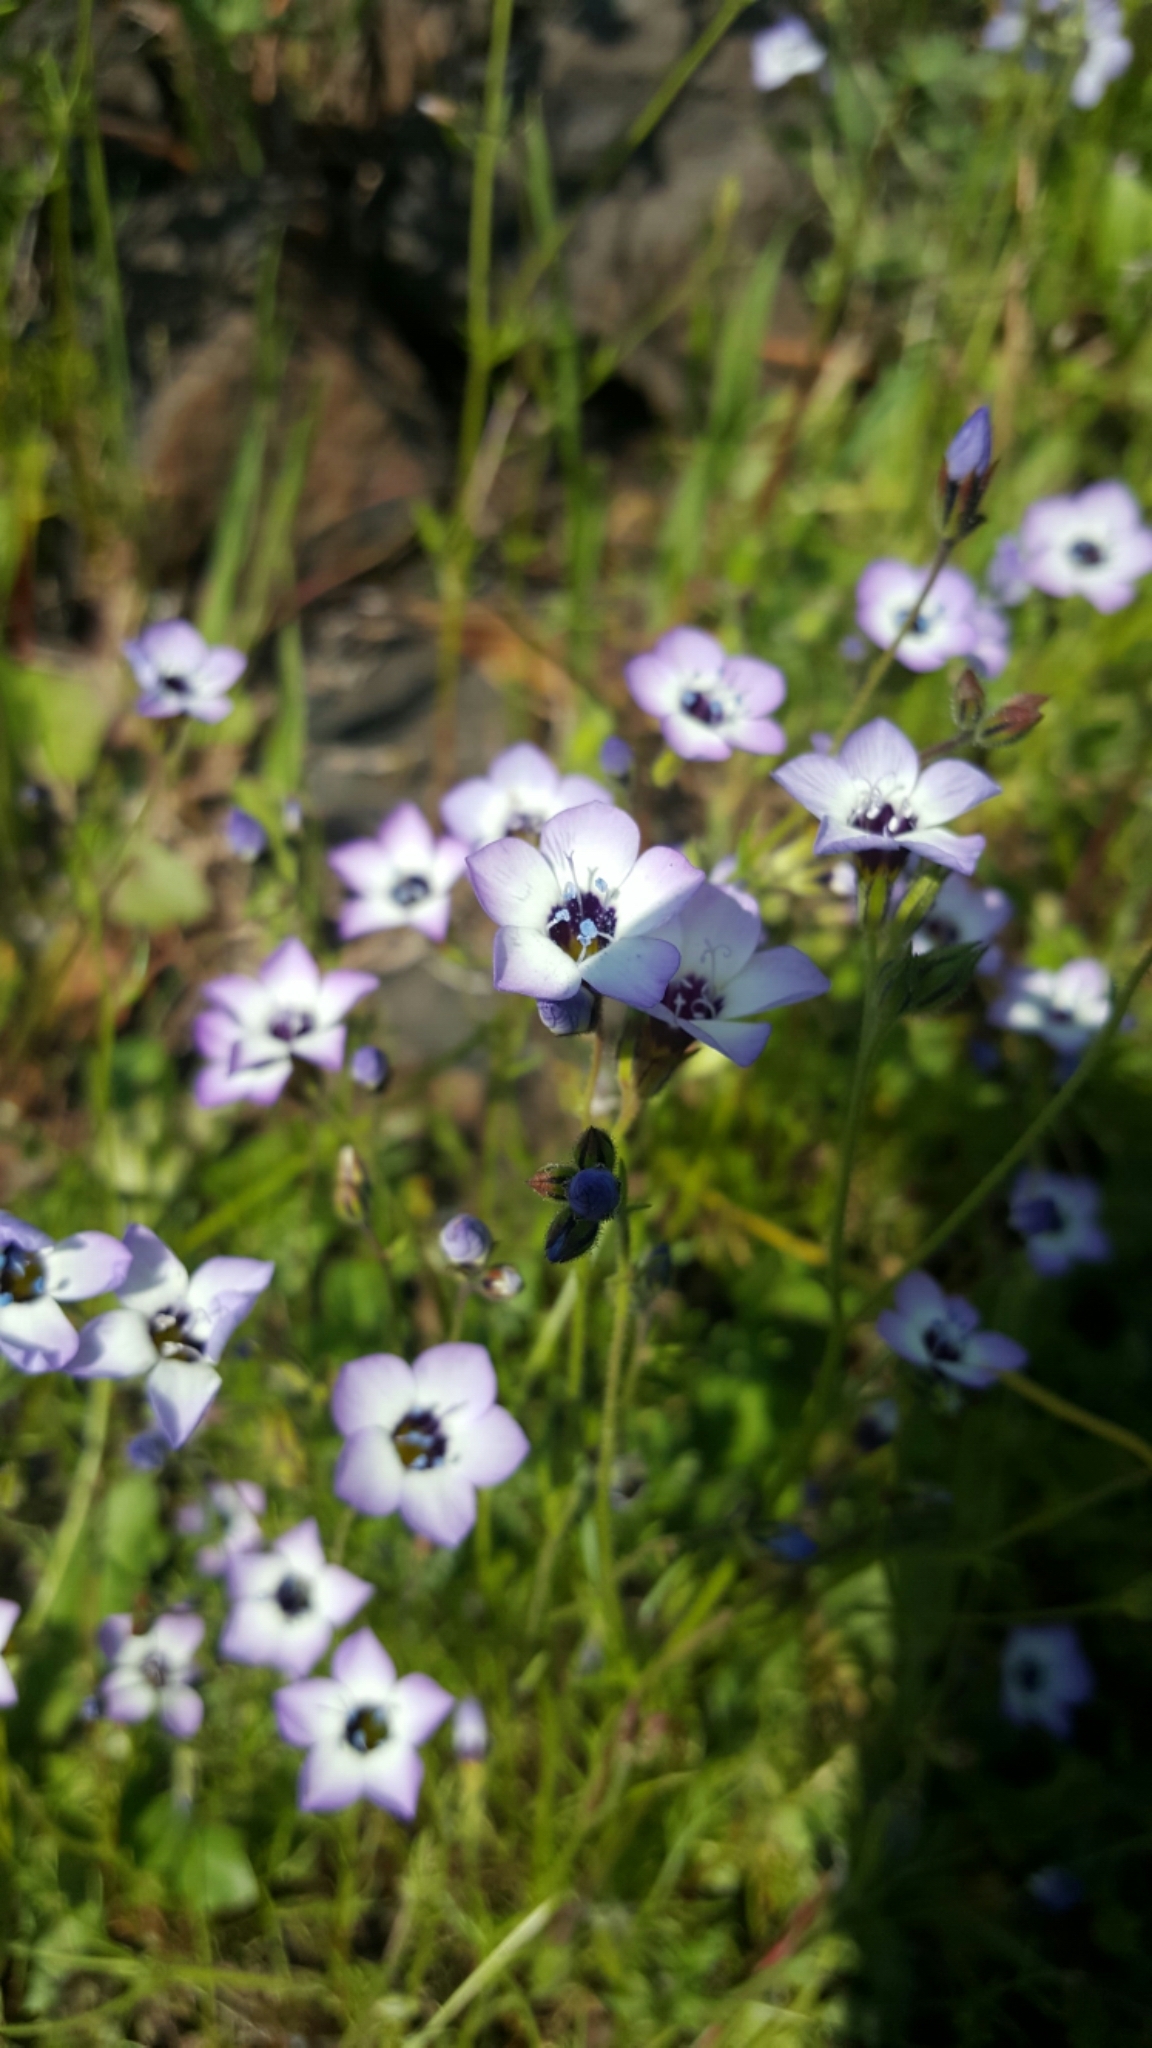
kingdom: Plantae
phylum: Tracheophyta
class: Magnoliopsida
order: Ericales
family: Polemoniaceae
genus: Gilia
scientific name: Gilia tricolor
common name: Bird's-eyes
